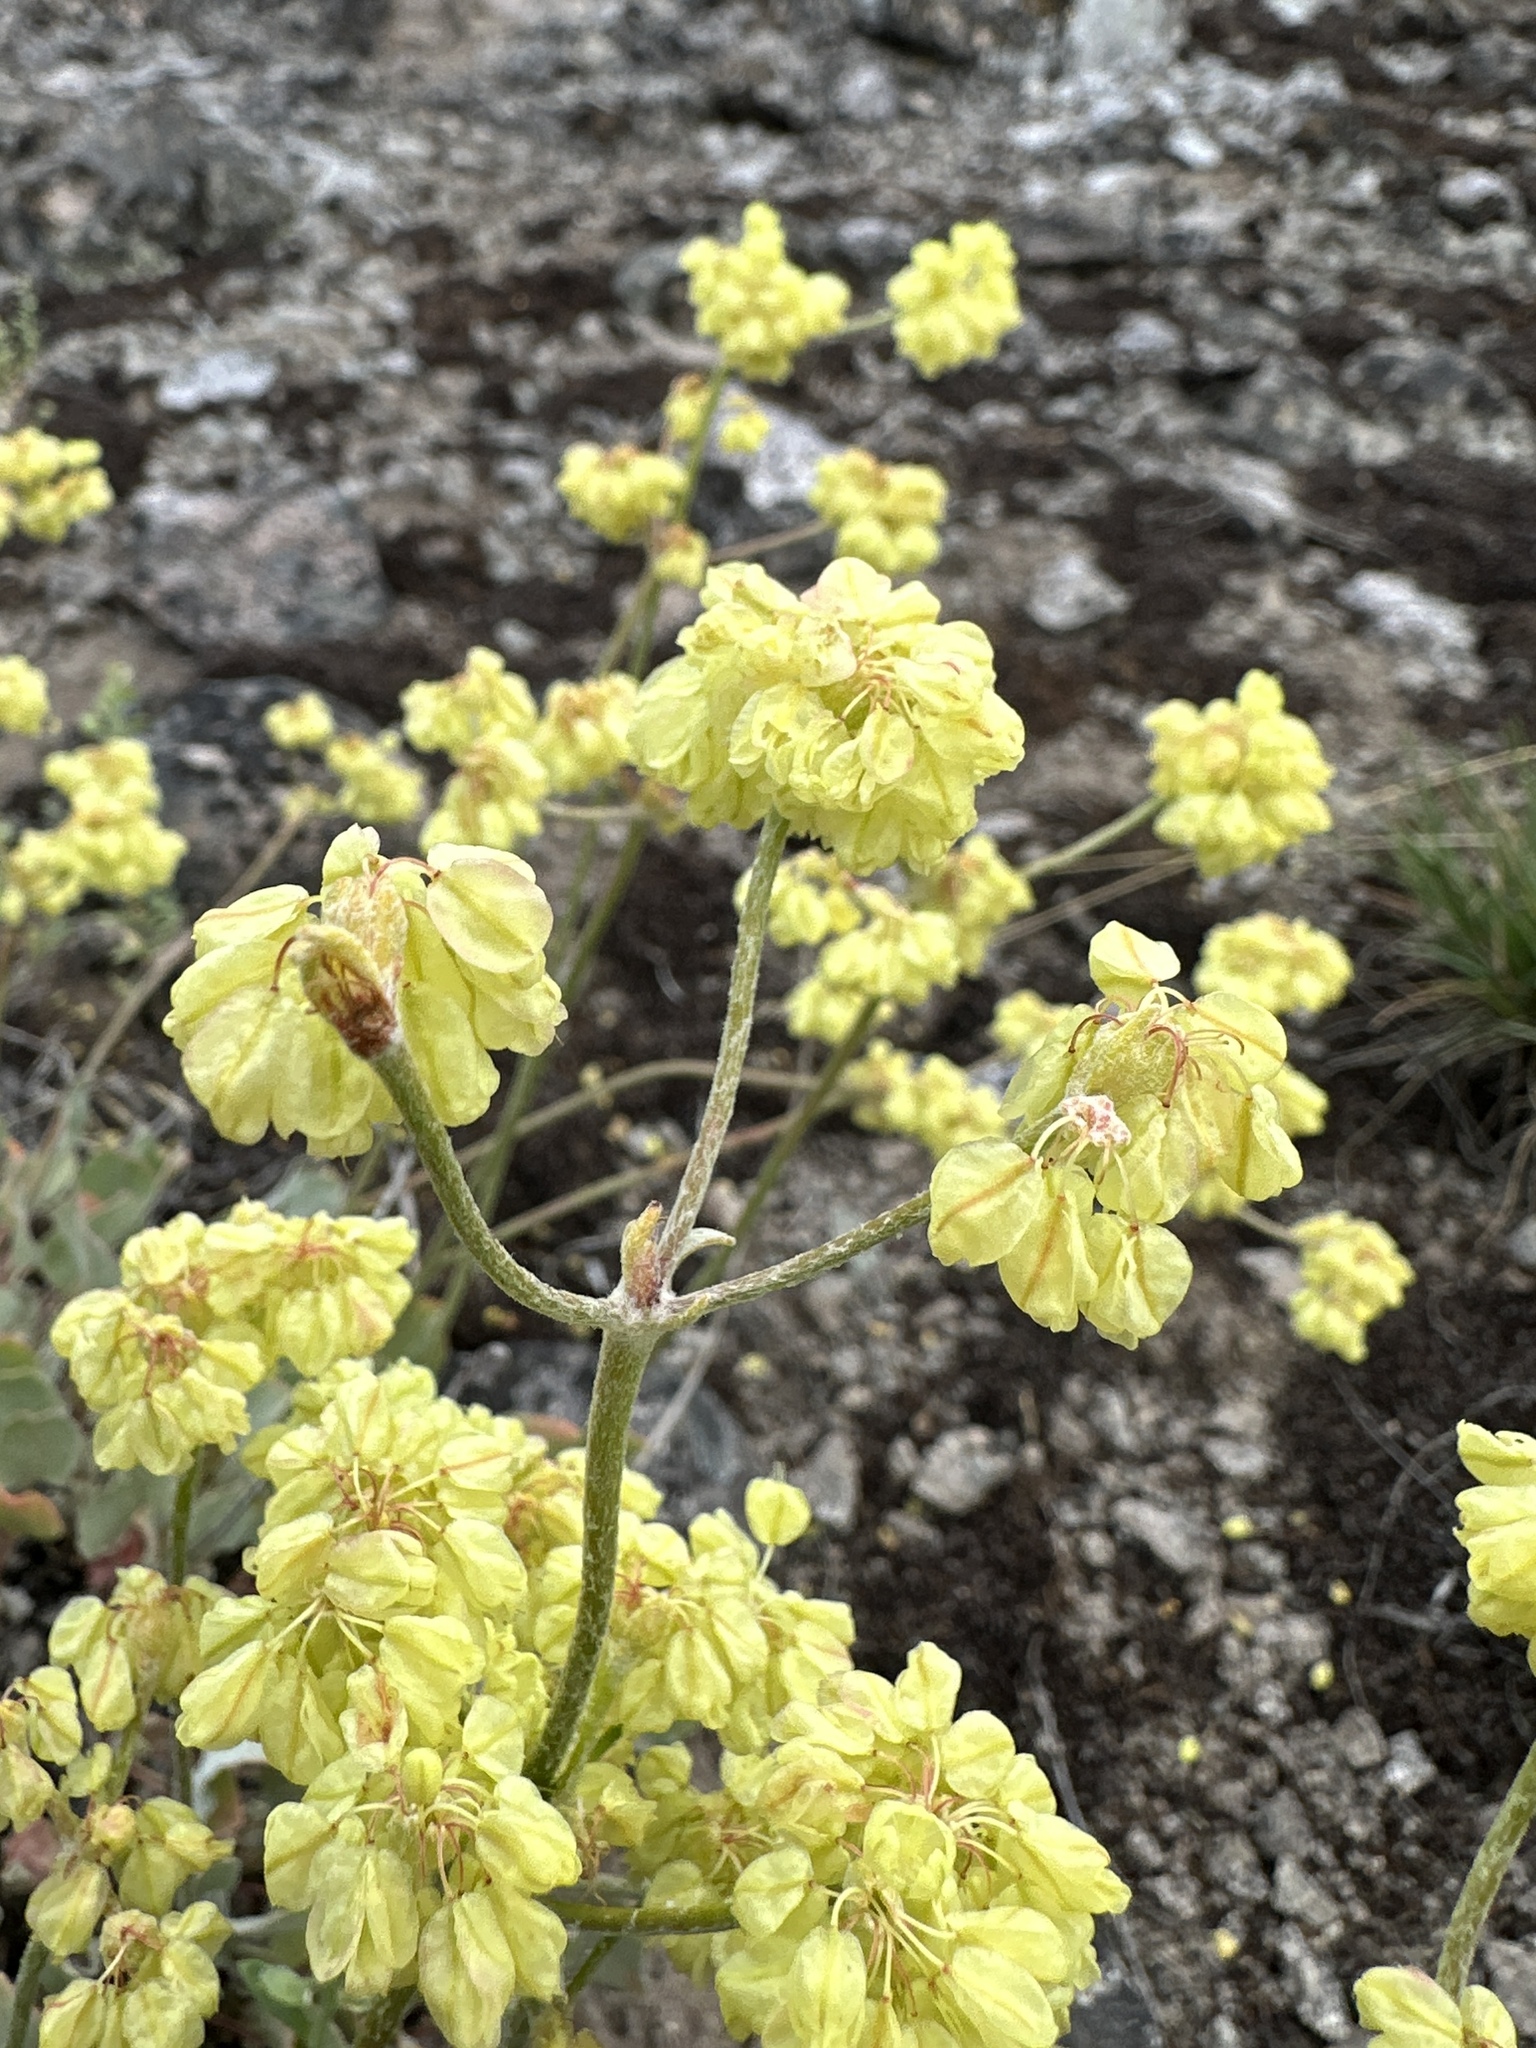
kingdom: Plantae
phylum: Tracheophyta
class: Magnoliopsida
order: Caryophyllales
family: Polygonaceae
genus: Eriogonum
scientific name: Eriogonum strictum
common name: Blue mountain buckwheat
